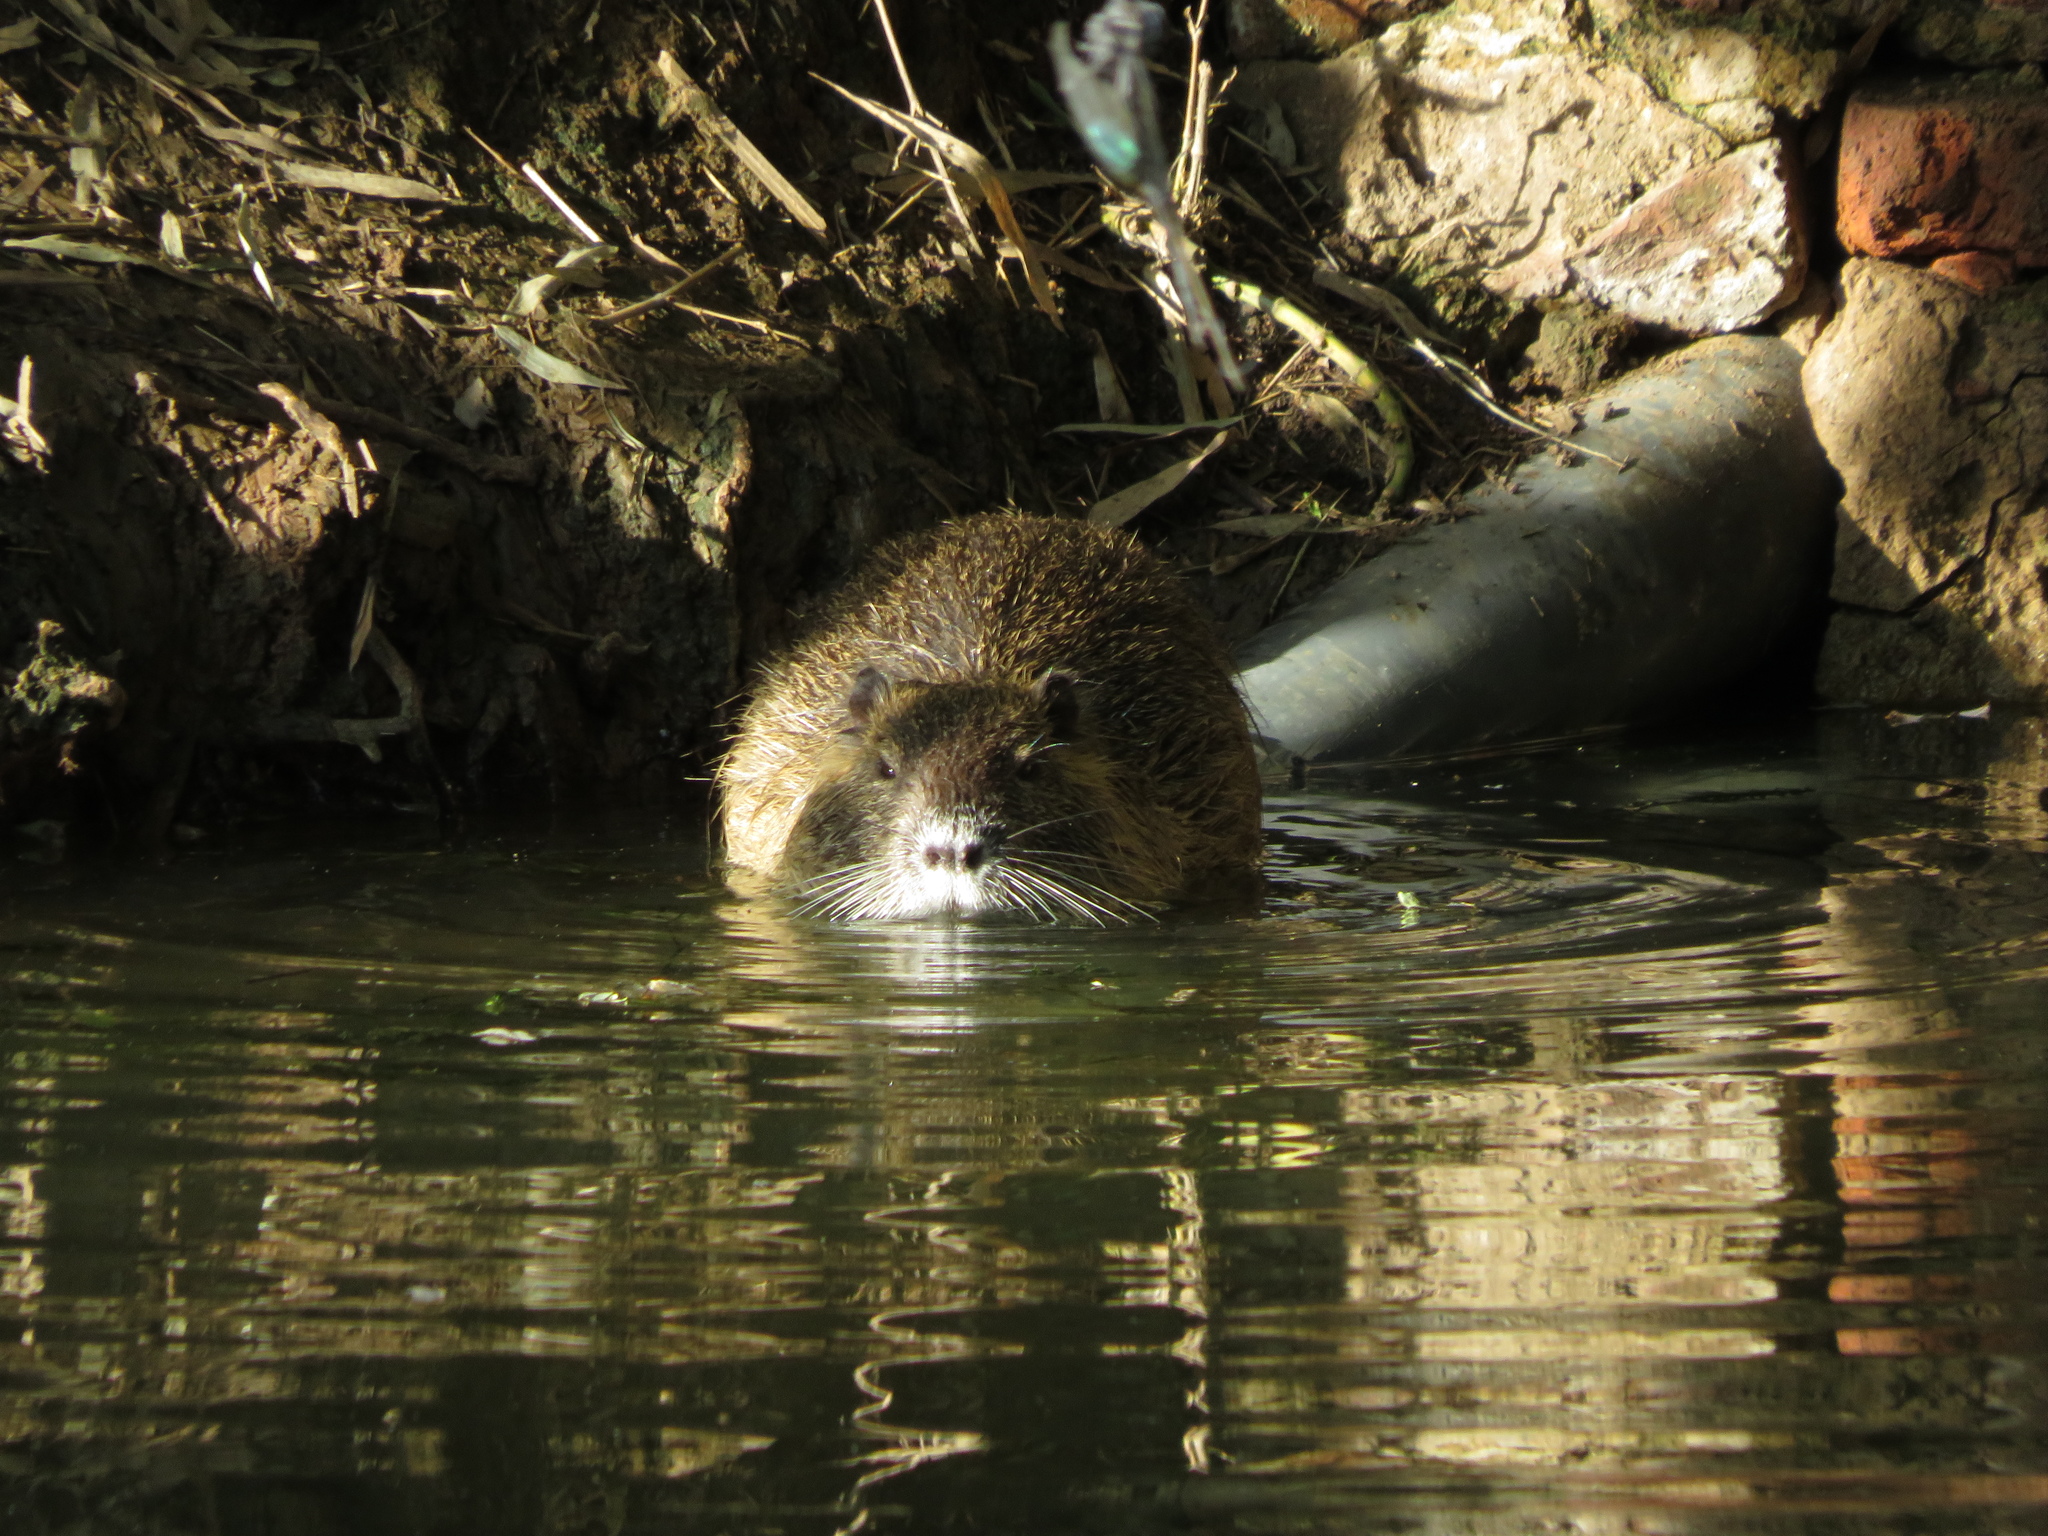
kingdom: Animalia
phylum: Chordata
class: Mammalia
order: Rodentia
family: Myocastoridae
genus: Myocastor
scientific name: Myocastor coypus
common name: Coypu
